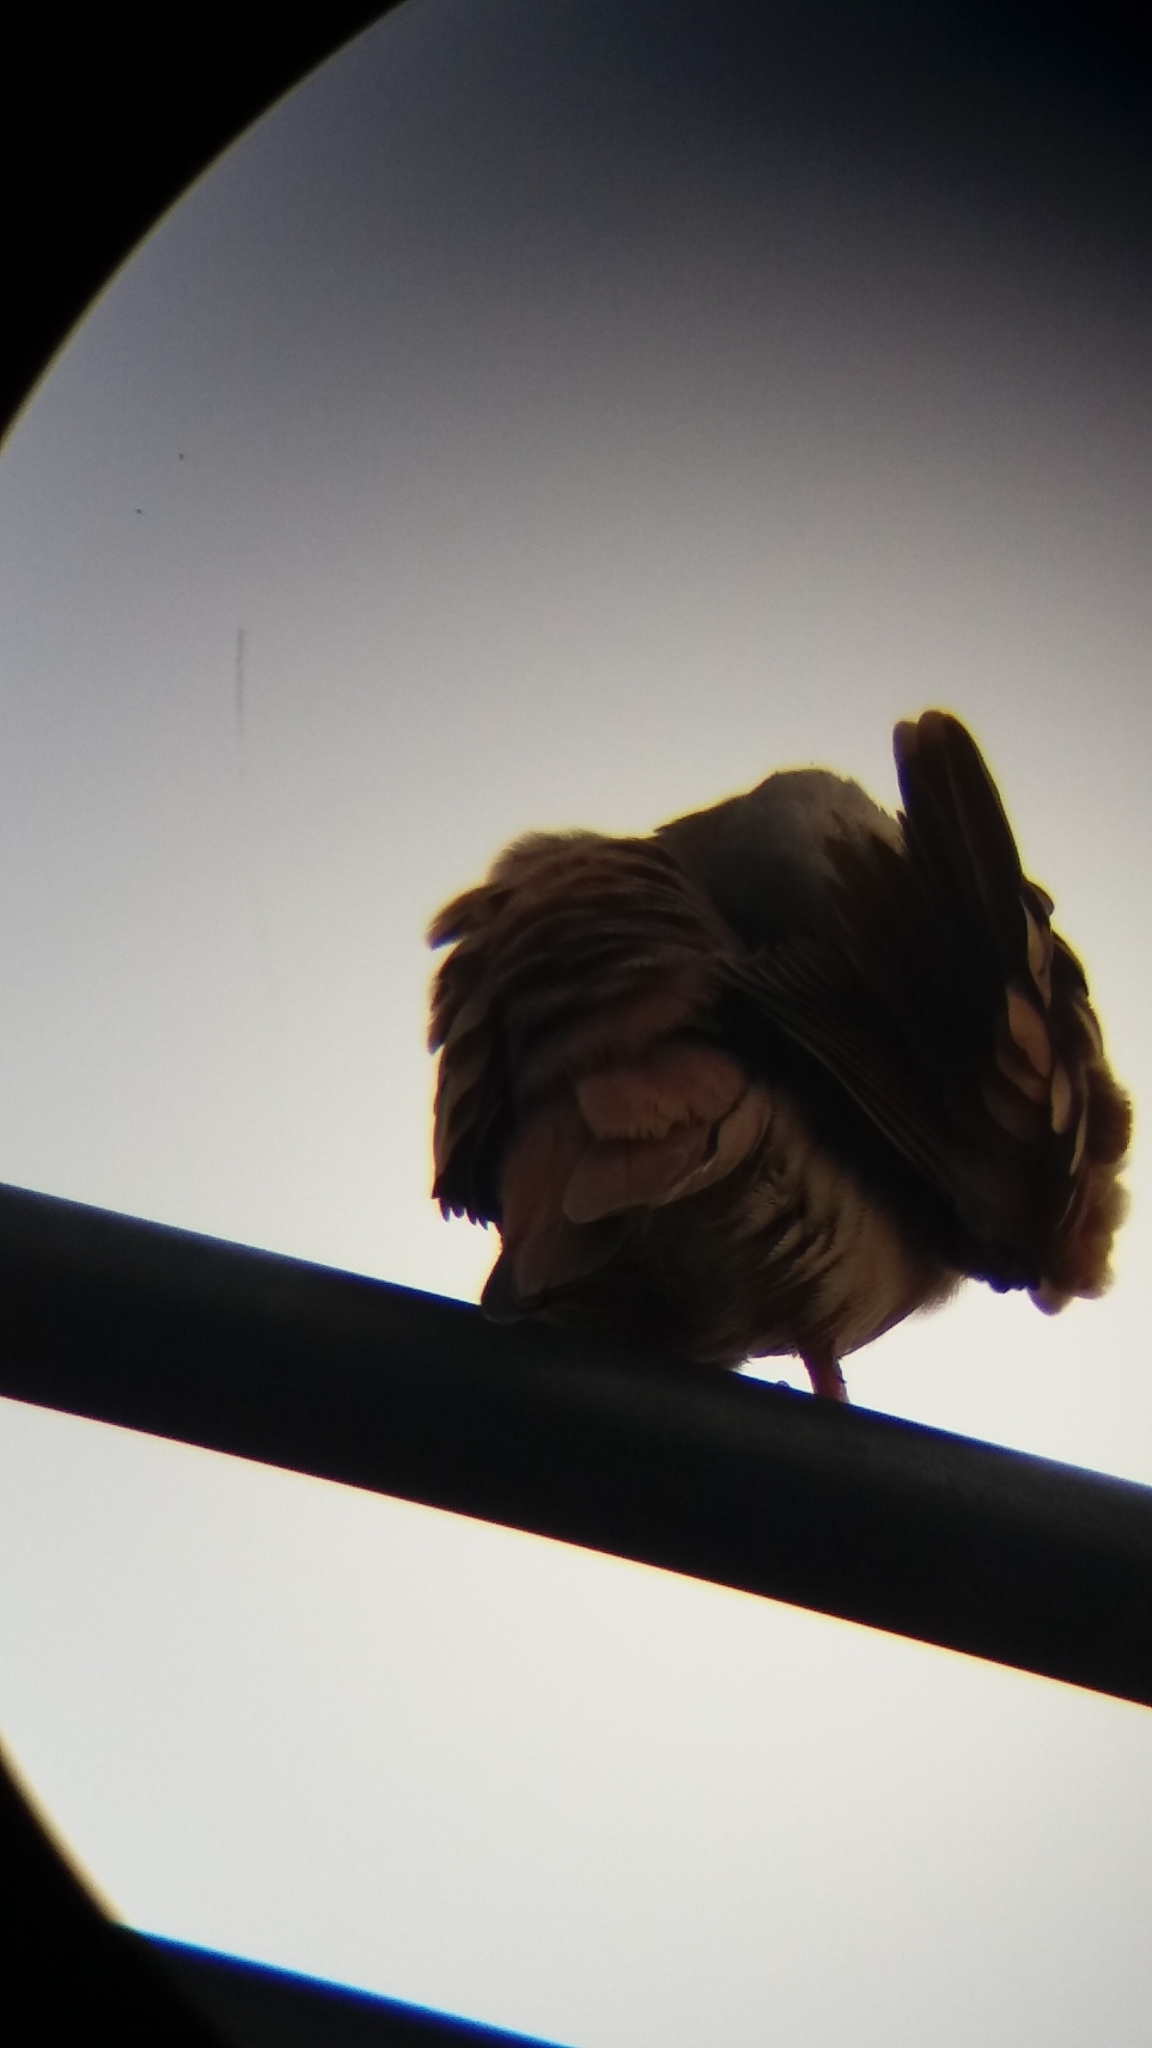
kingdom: Animalia
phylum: Chordata
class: Aves
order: Columbiformes
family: Columbidae
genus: Columbina
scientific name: Columbina talpacoti
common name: Ruddy ground dove
